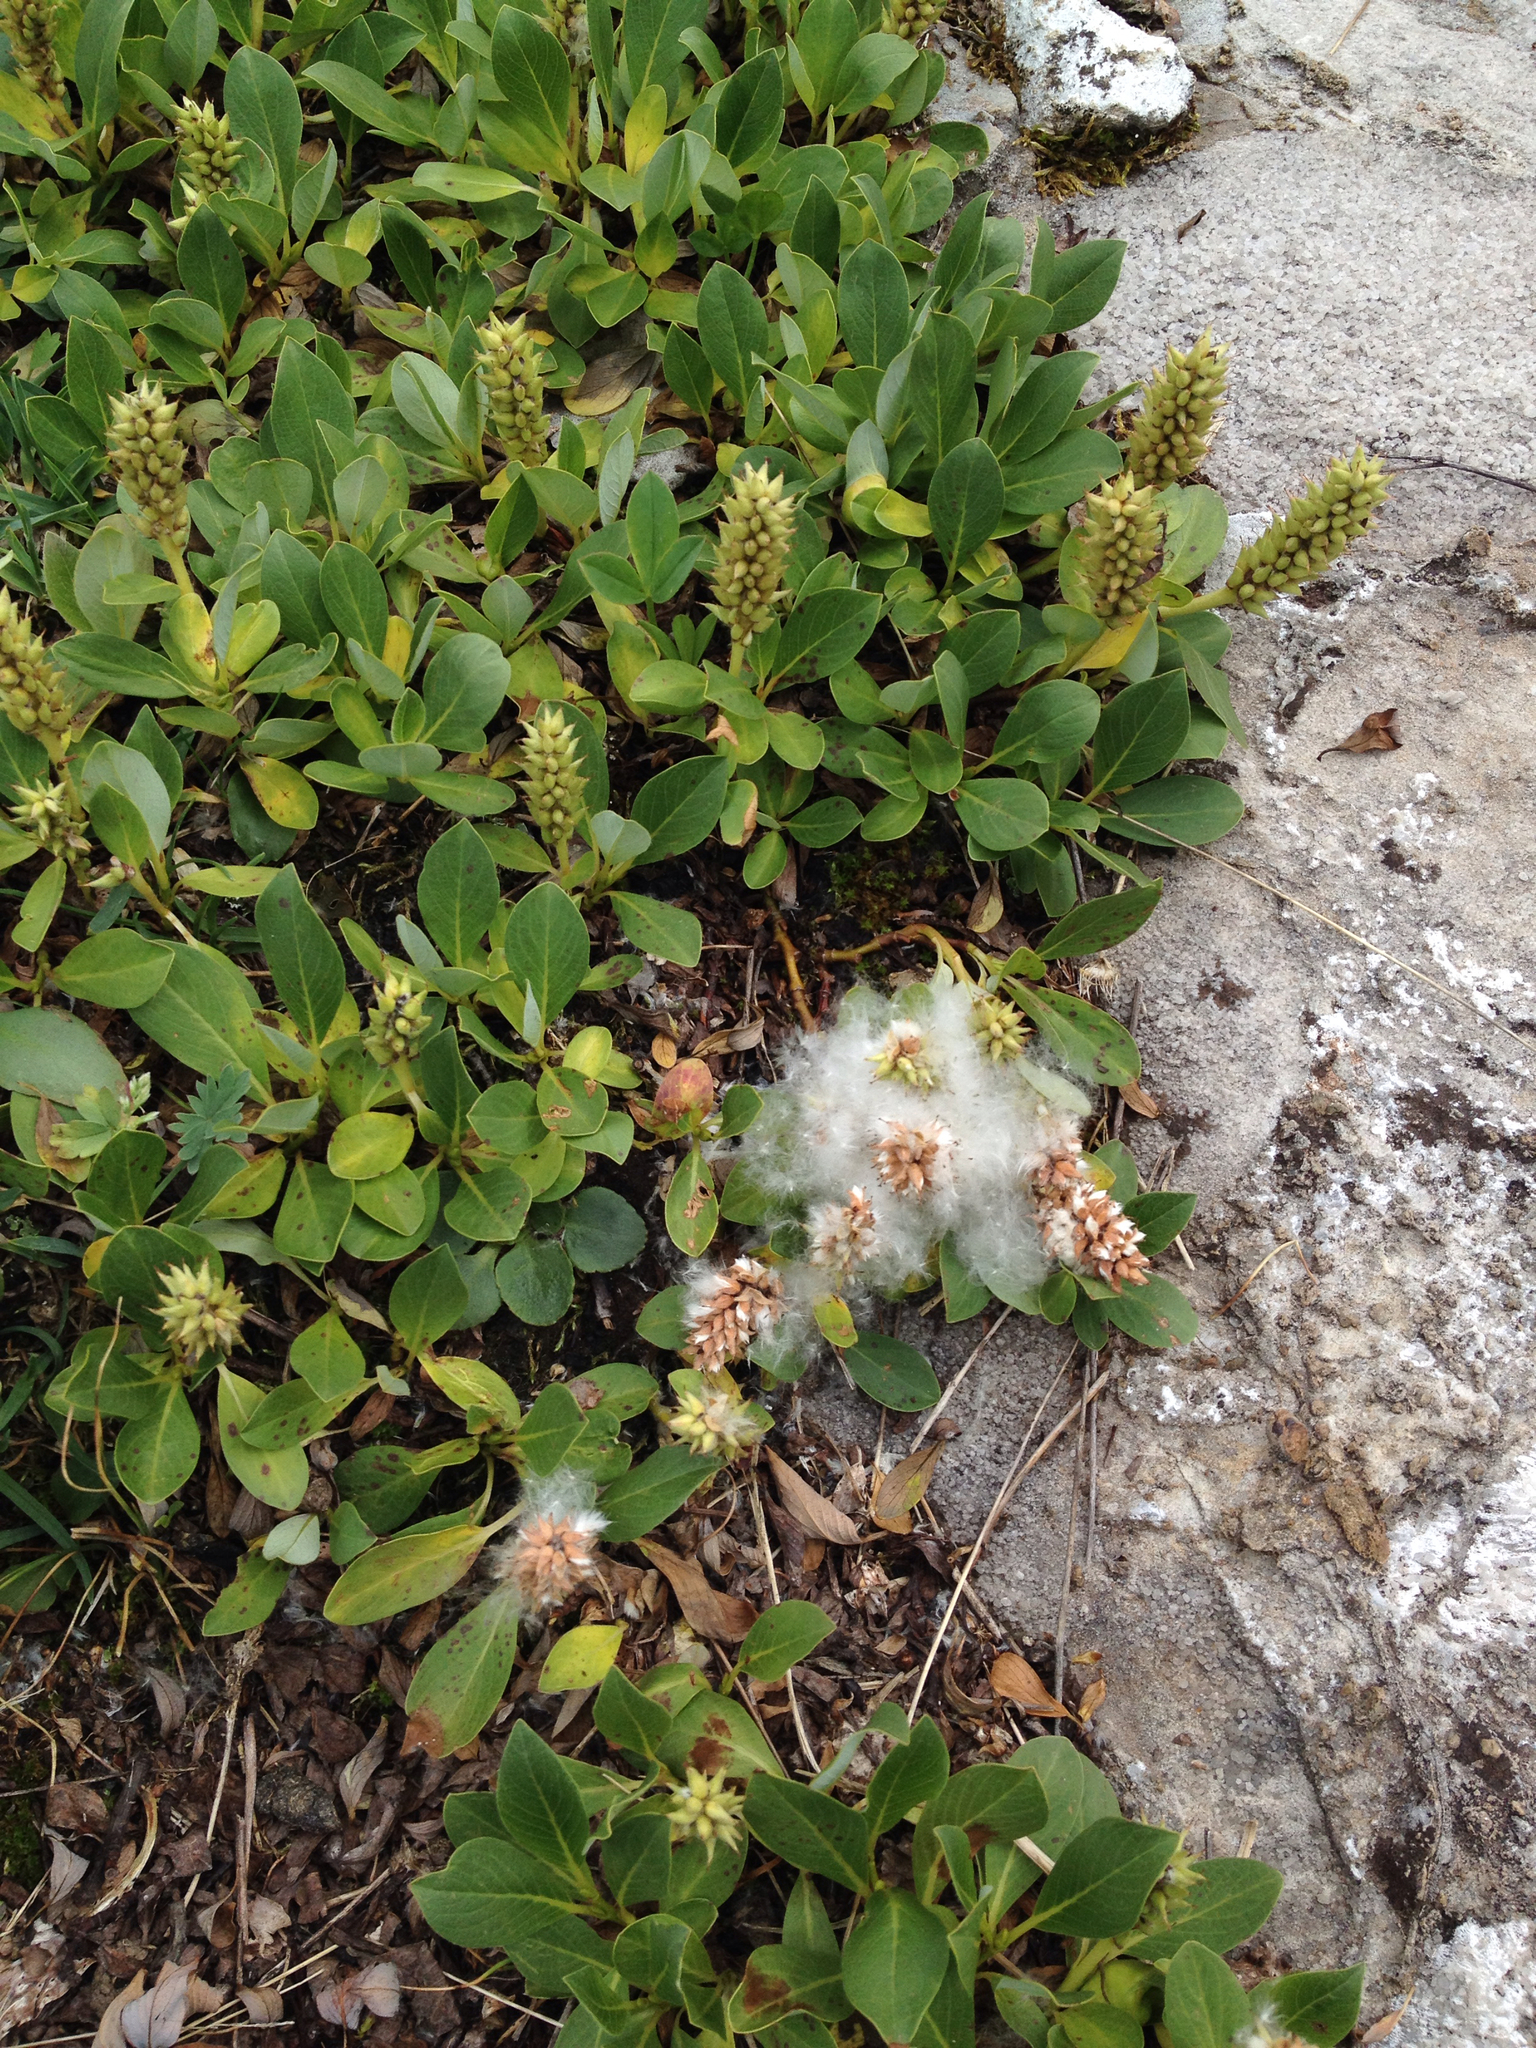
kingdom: Plantae
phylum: Tracheophyta
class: Magnoliopsida
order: Malpighiales
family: Salicaceae
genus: Salix
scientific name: Salix petrophila
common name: Rocky mountain willow
